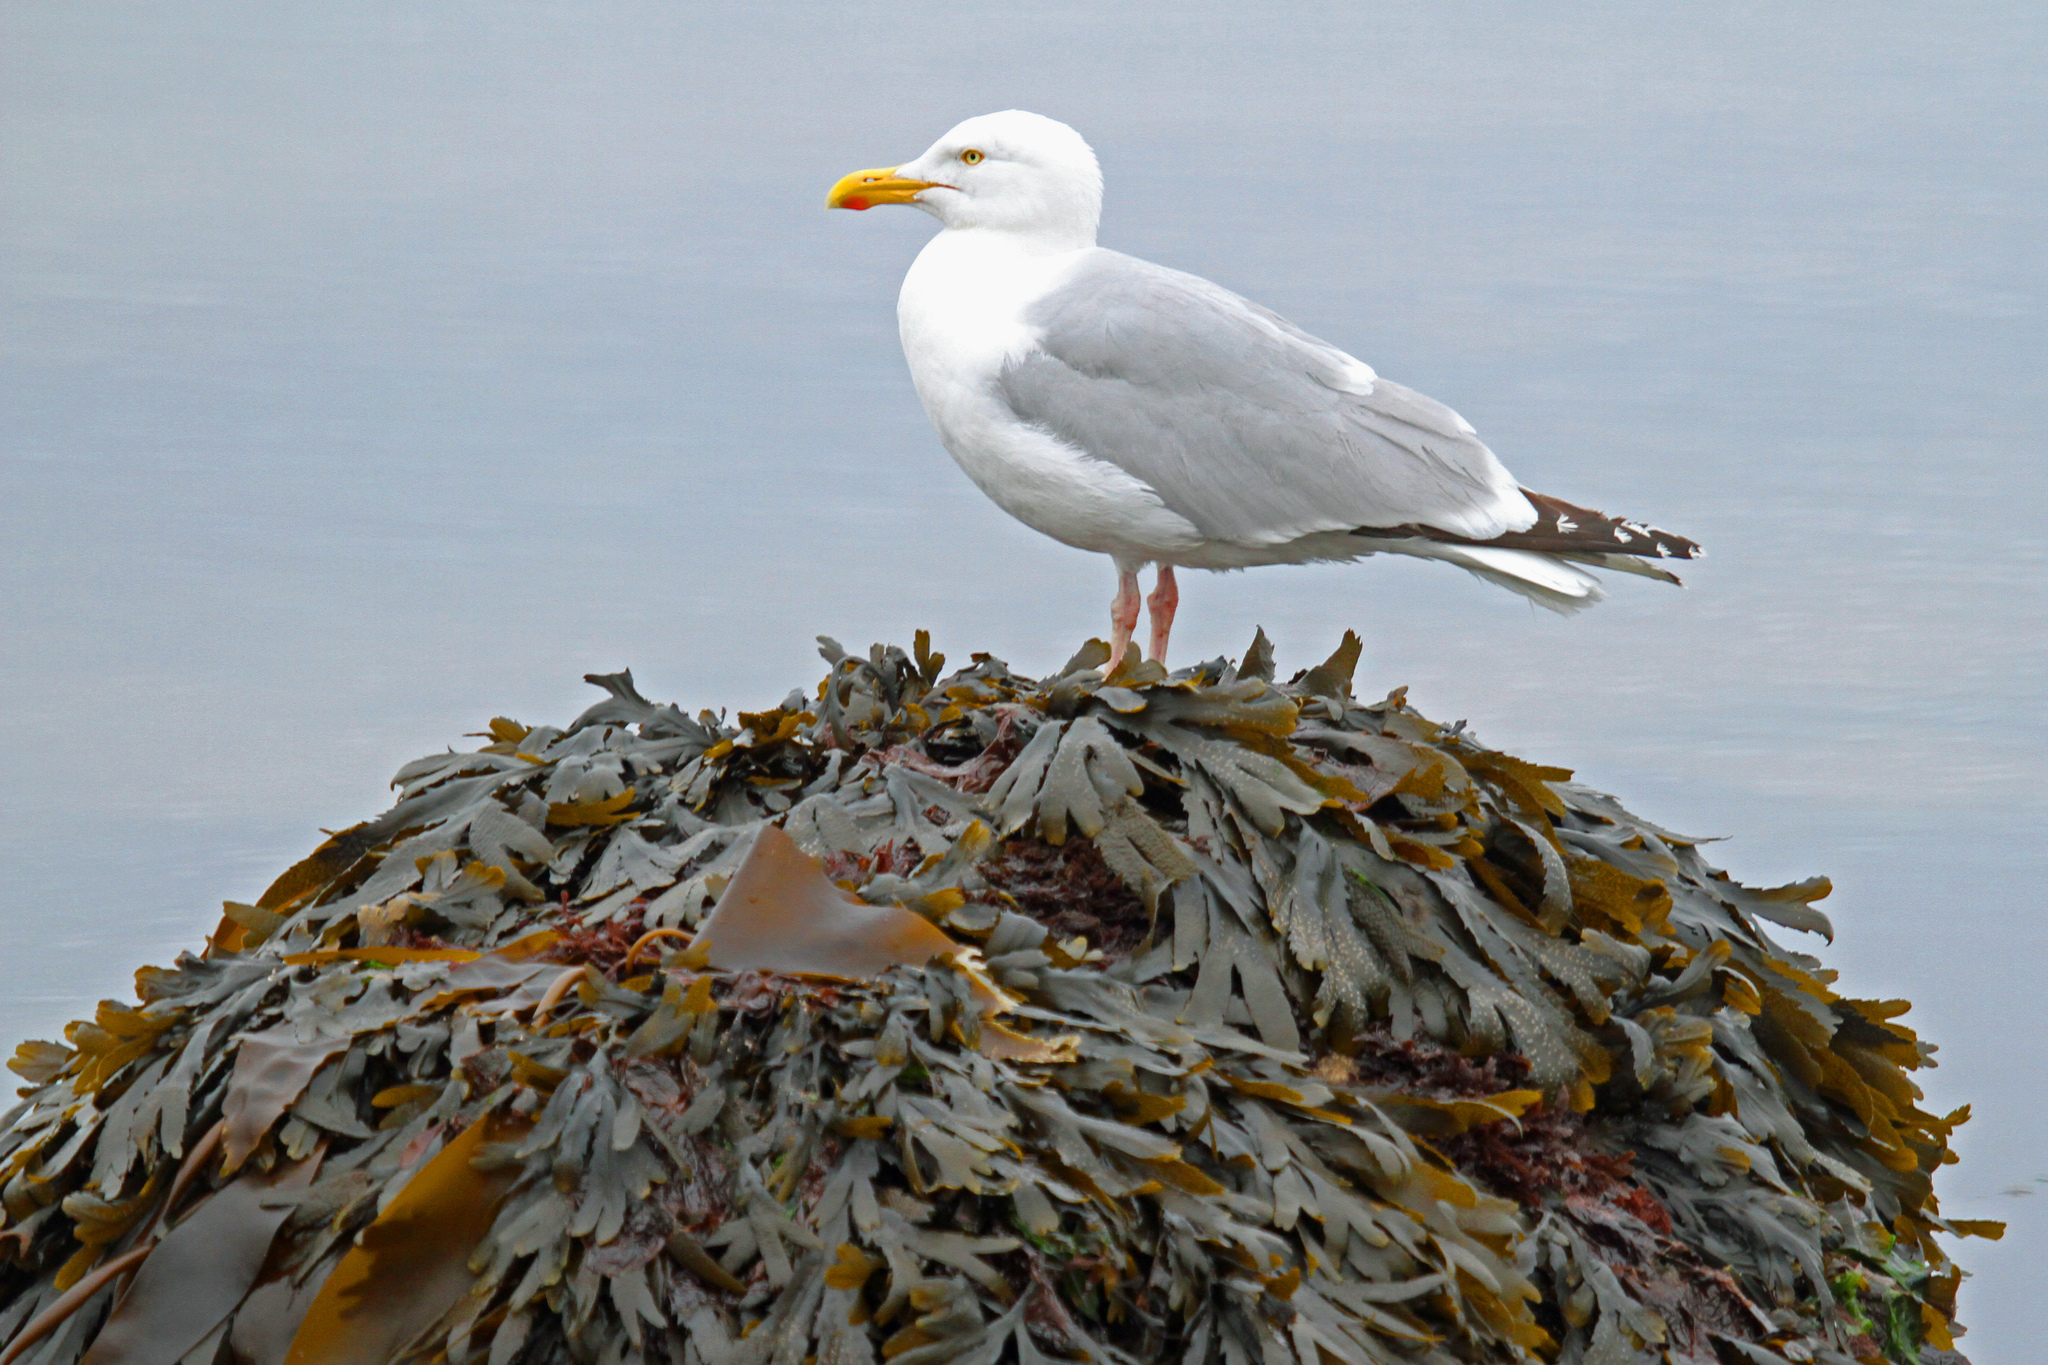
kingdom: Animalia
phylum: Chordata
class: Aves
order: Charadriiformes
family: Laridae
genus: Larus
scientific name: Larus argentatus
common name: Herring gull
